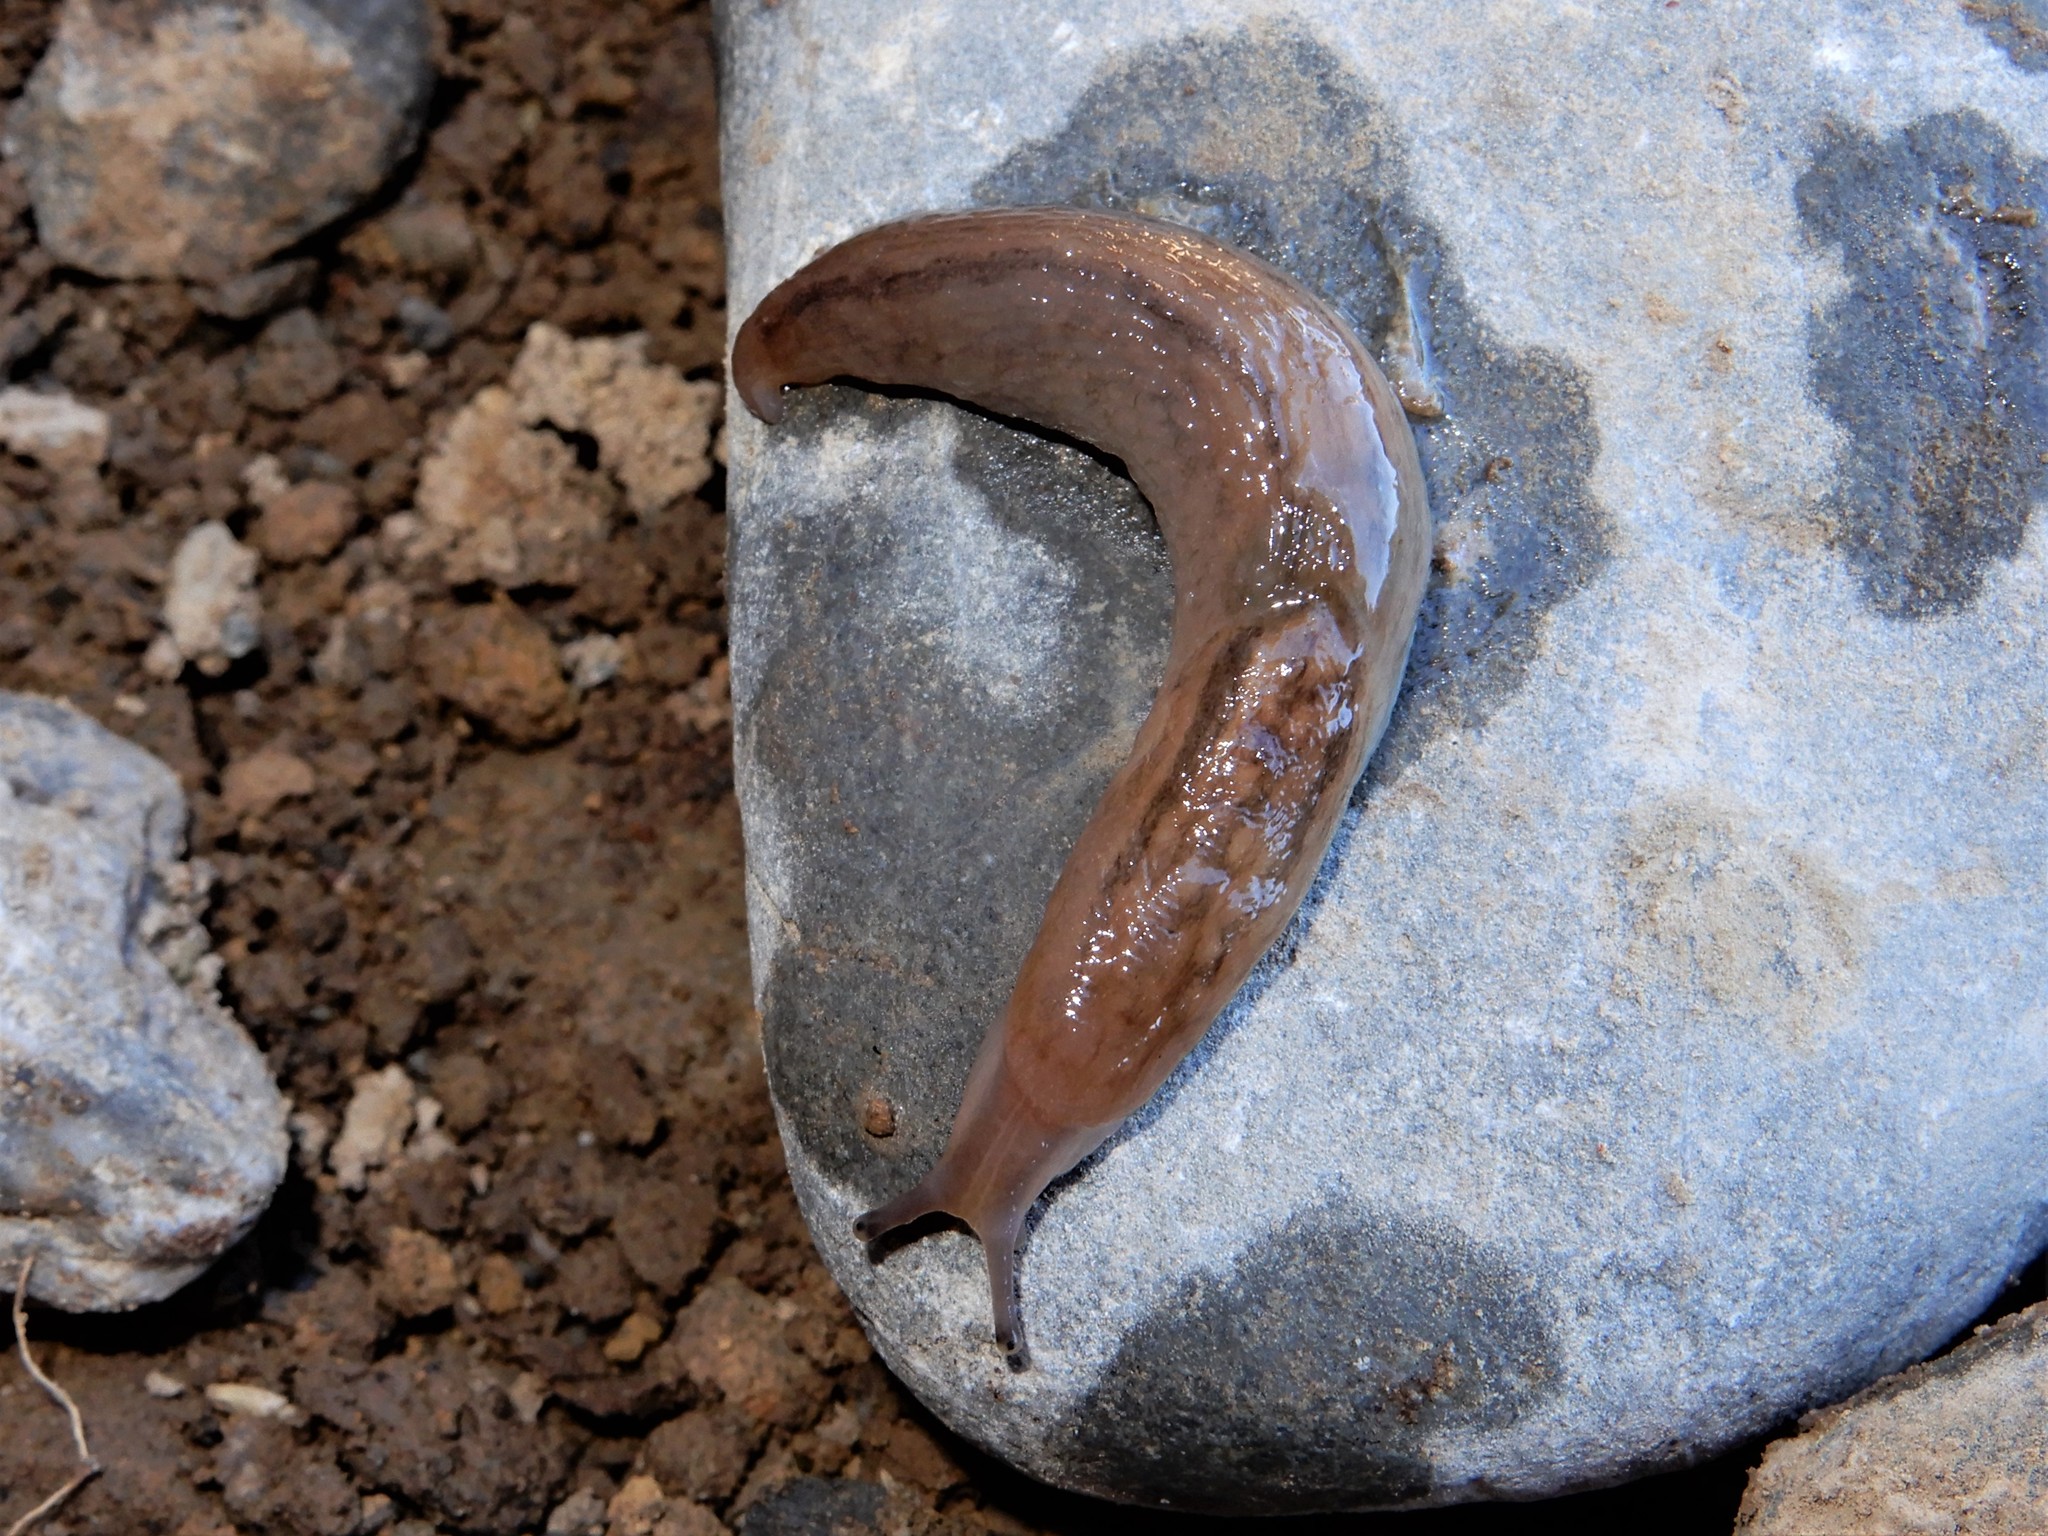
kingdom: Animalia
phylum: Mollusca
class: Gastropoda
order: Stylommatophora
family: Limacidae
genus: Ambigolimax
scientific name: Ambigolimax
